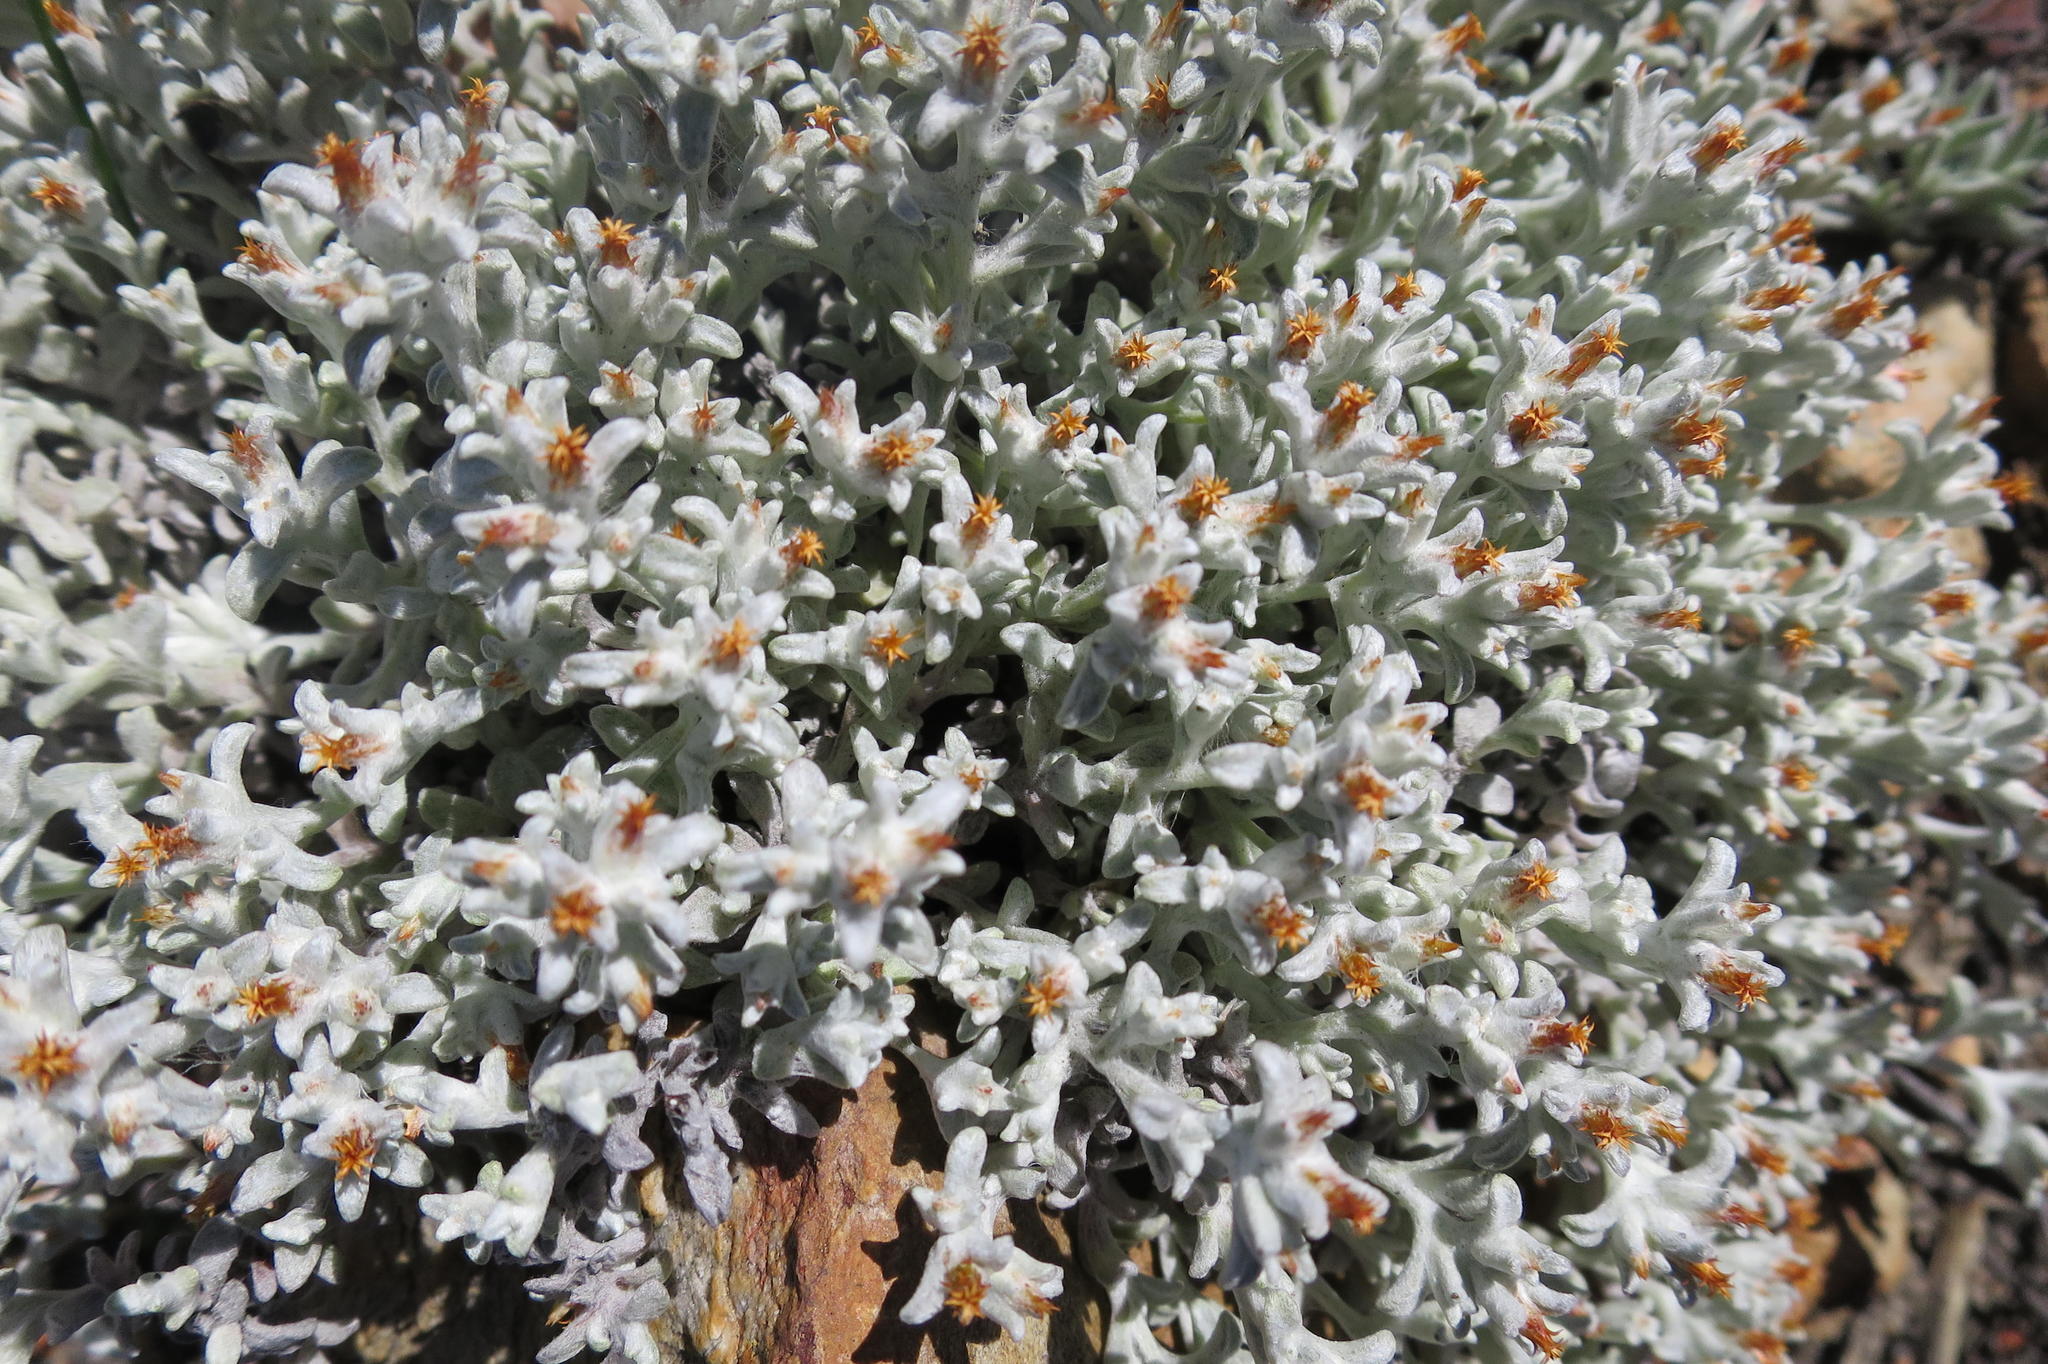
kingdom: Plantae
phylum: Tracheophyta
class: Magnoliopsida
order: Asterales
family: Asteraceae
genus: Helichrysum
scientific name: Helichrysum tinctum
